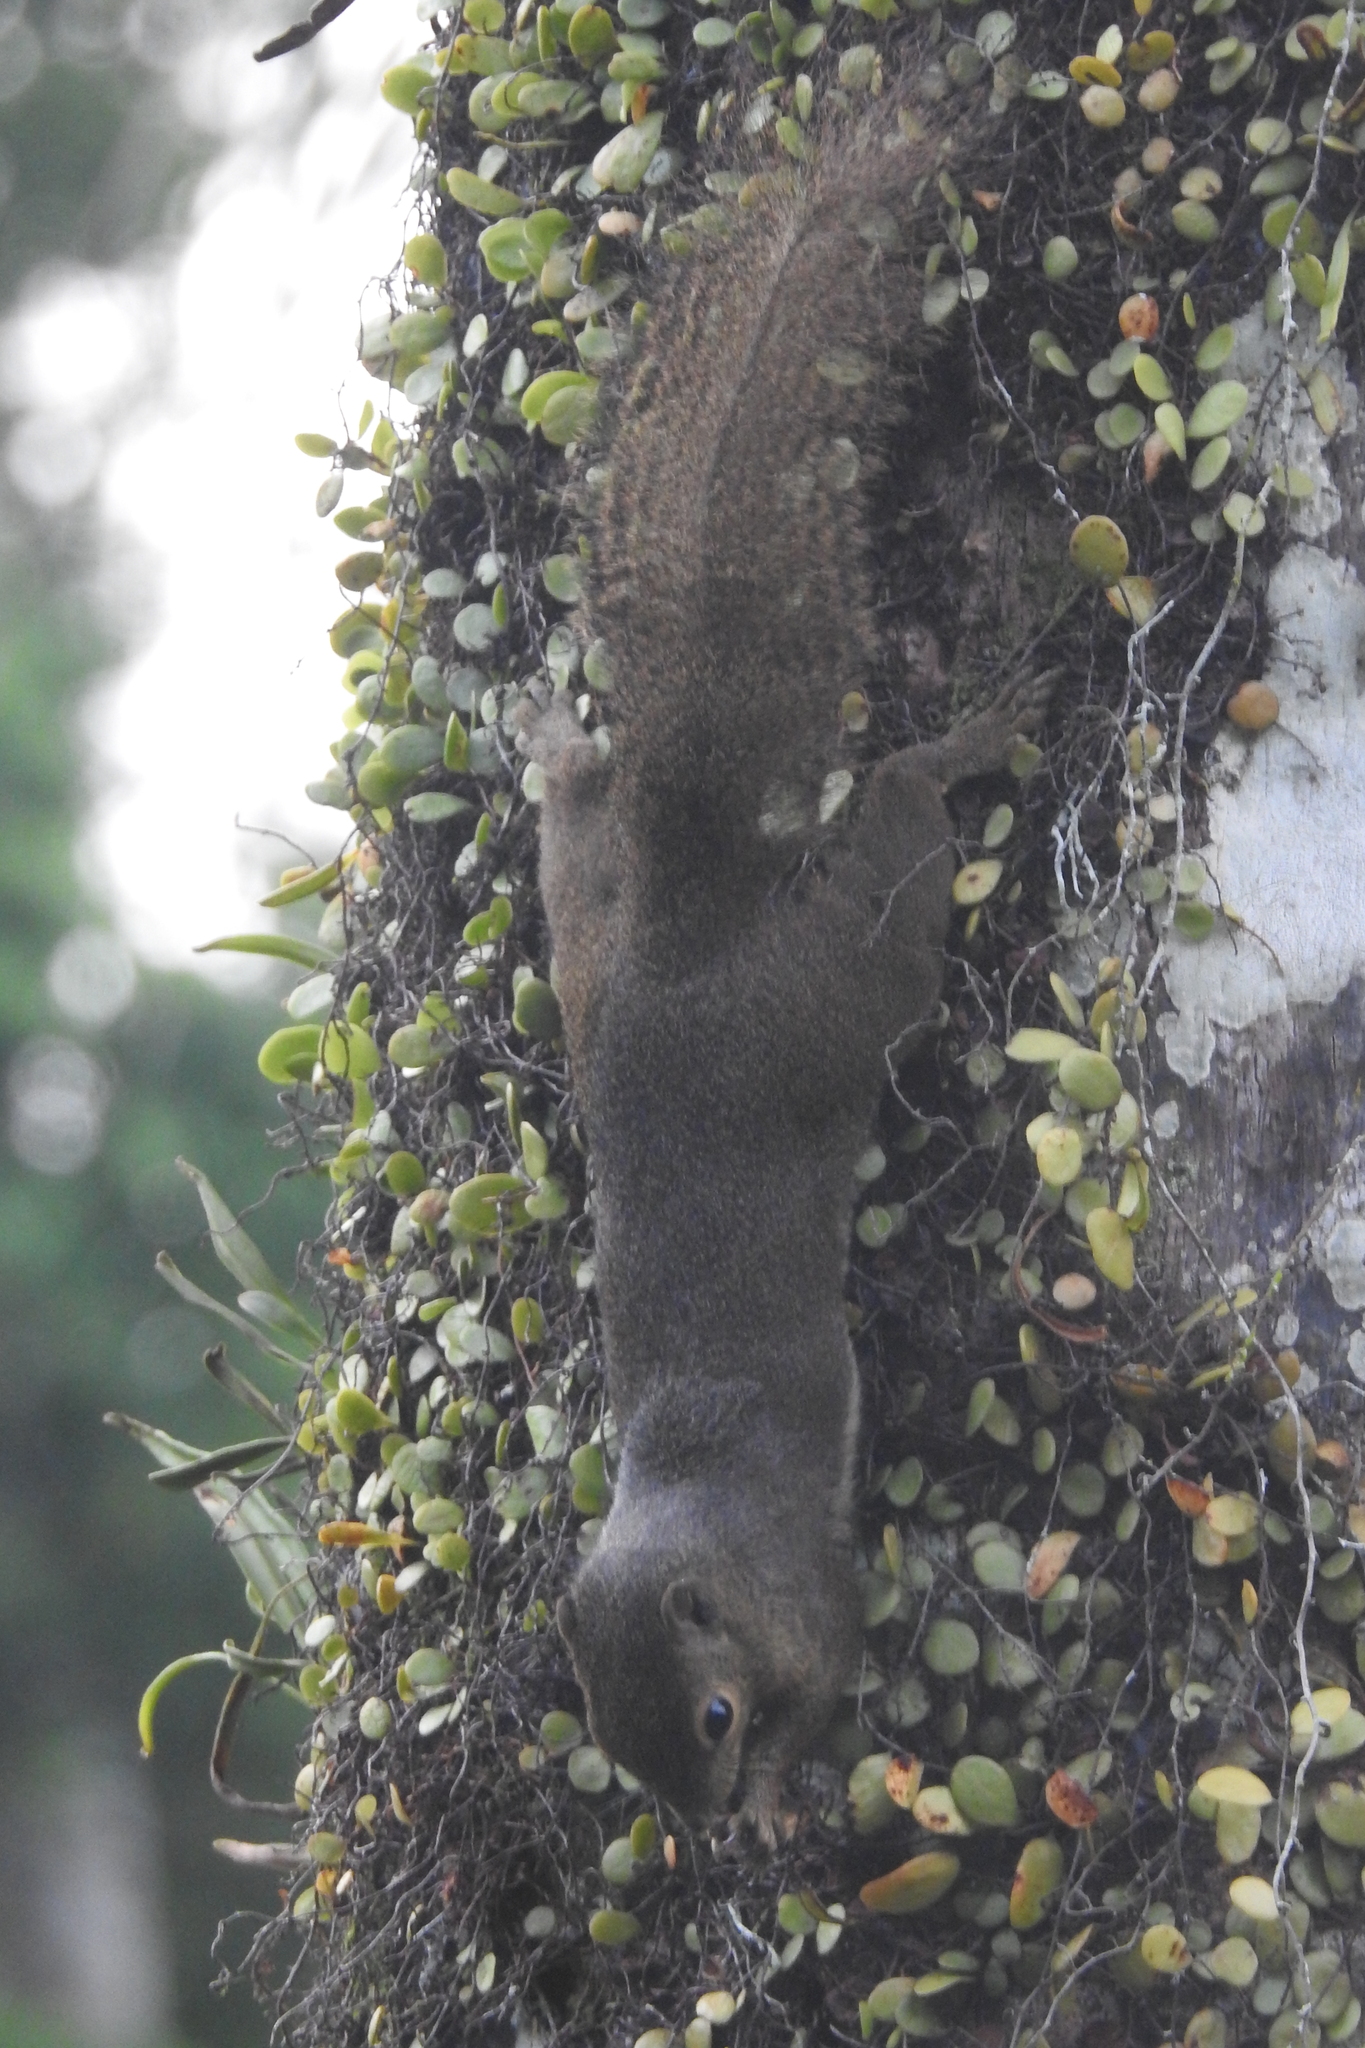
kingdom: Animalia
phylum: Chordata
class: Mammalia
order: Rodentia
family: Sciuridae
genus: Callosciurus
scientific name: Callosciurus notatus
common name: Plantain squirrel
